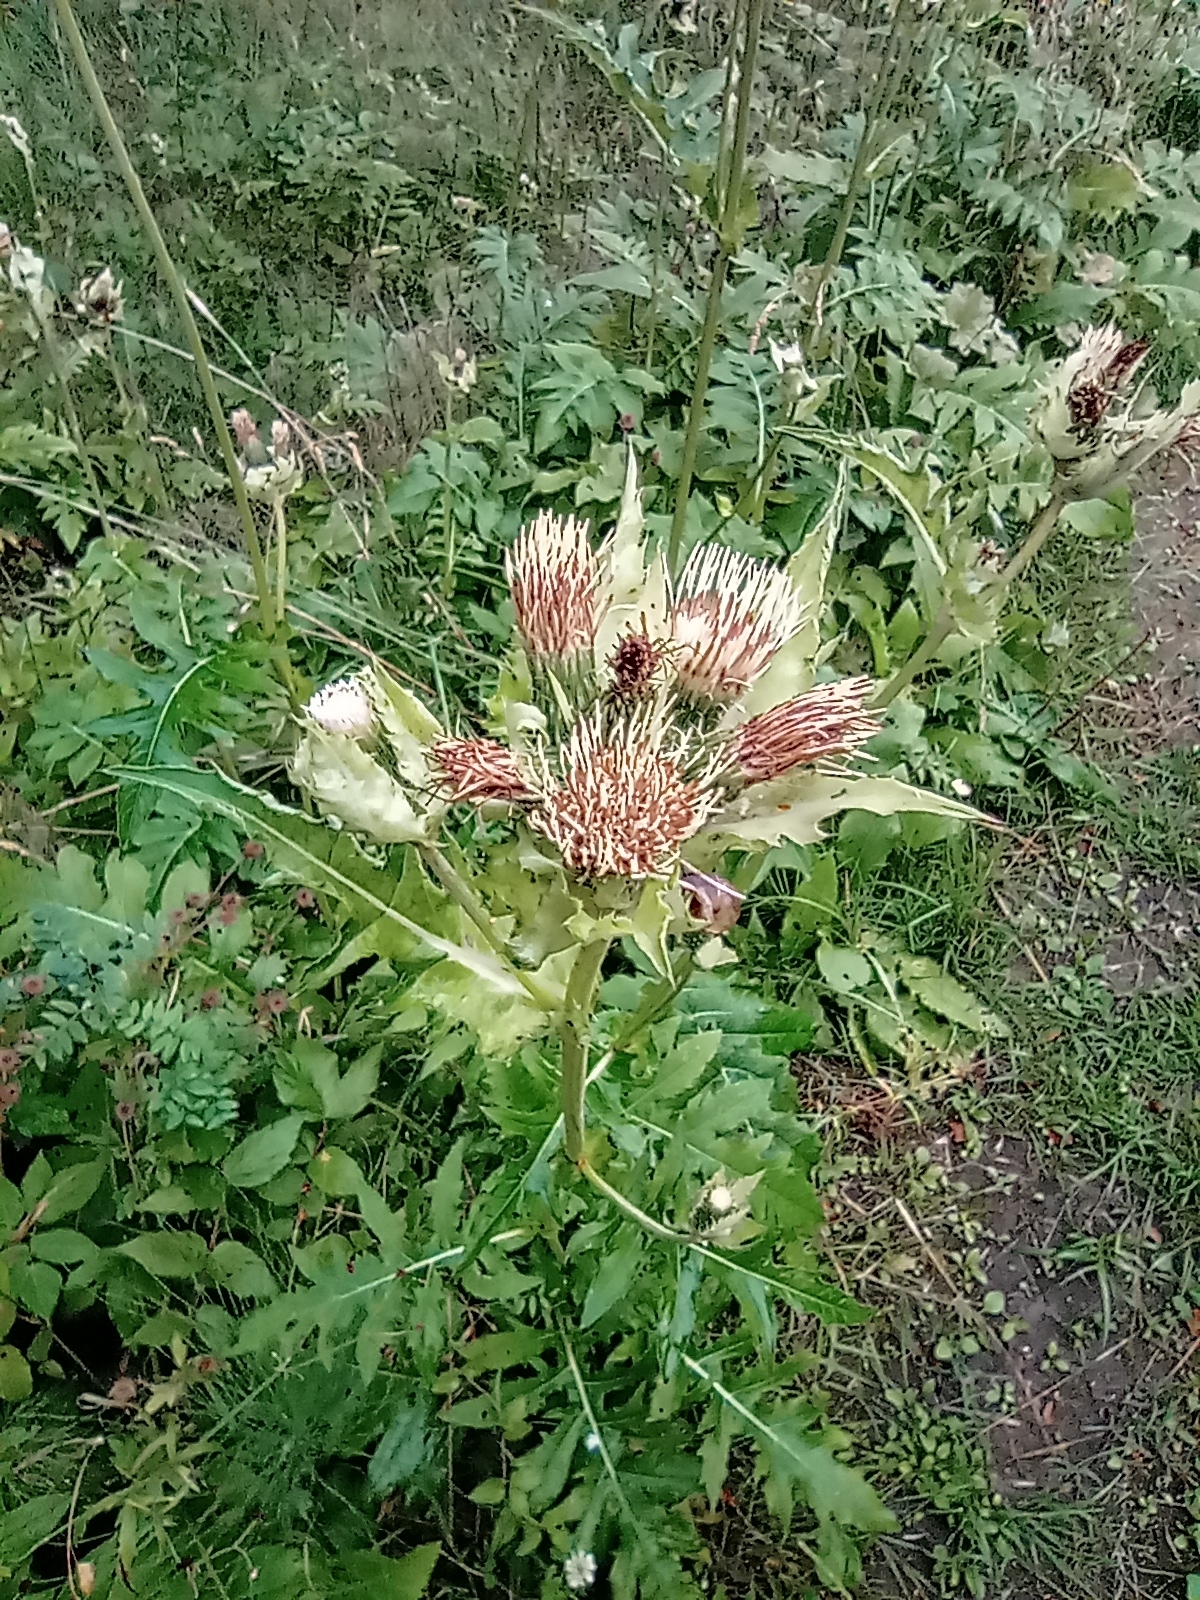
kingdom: Plantae
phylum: Tracheophyta
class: Magnoliopsida
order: Asterales
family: Asteraceae
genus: Cirsium
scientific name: Cirsium oleraceum
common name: Cabbage thistle
